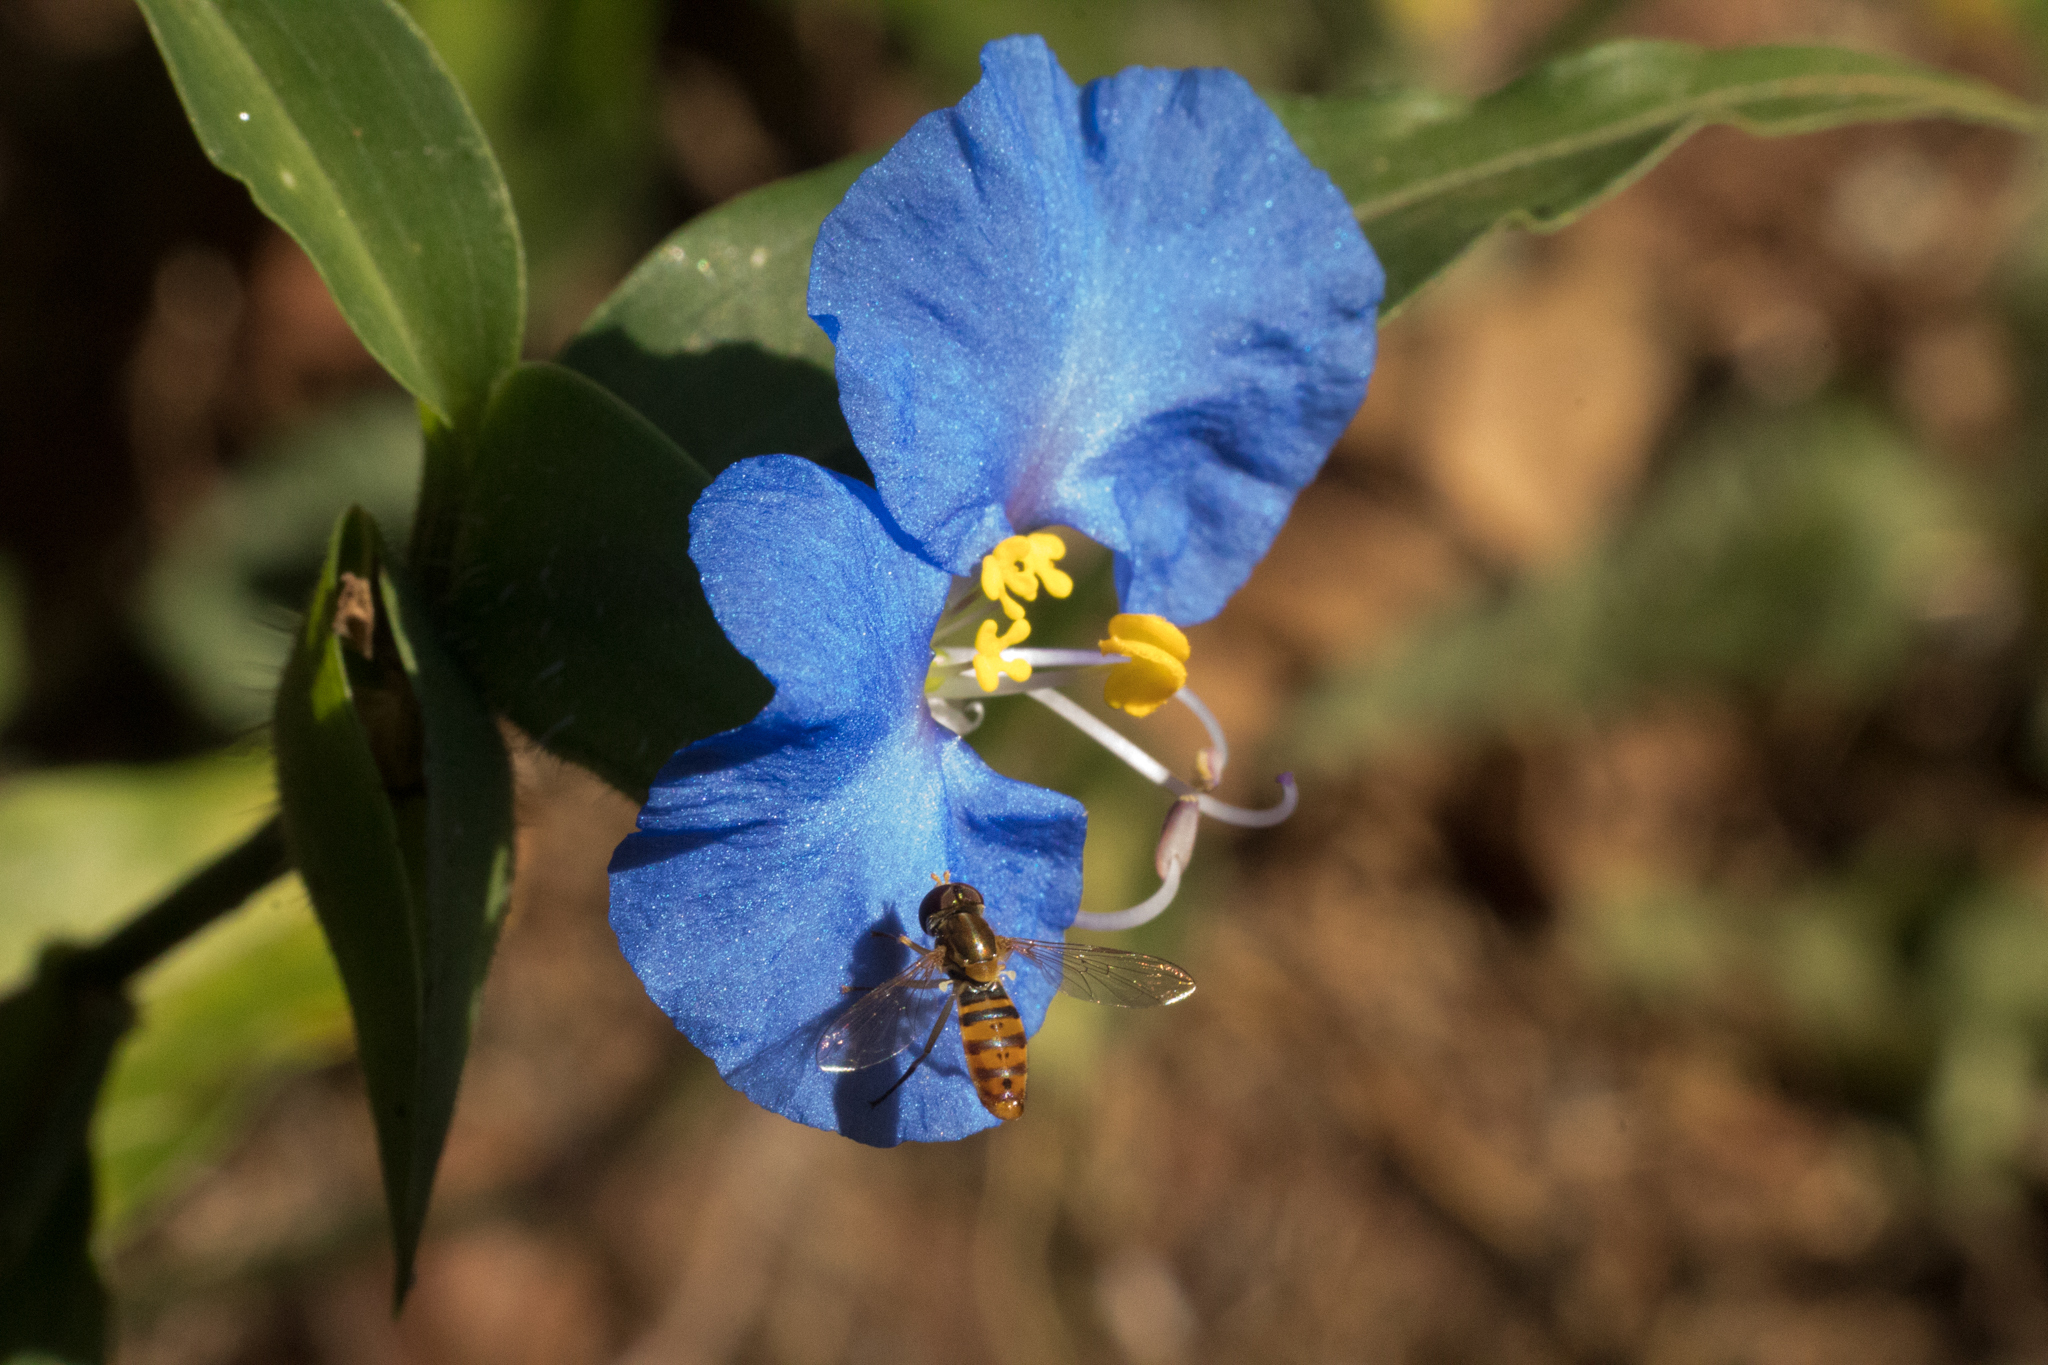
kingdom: Plantae
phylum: Tracheophyta
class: Liliopsida
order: Commelinales
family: Commelinaceae
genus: Commelina
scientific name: Commelina erecta
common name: Blousel blommetjie
